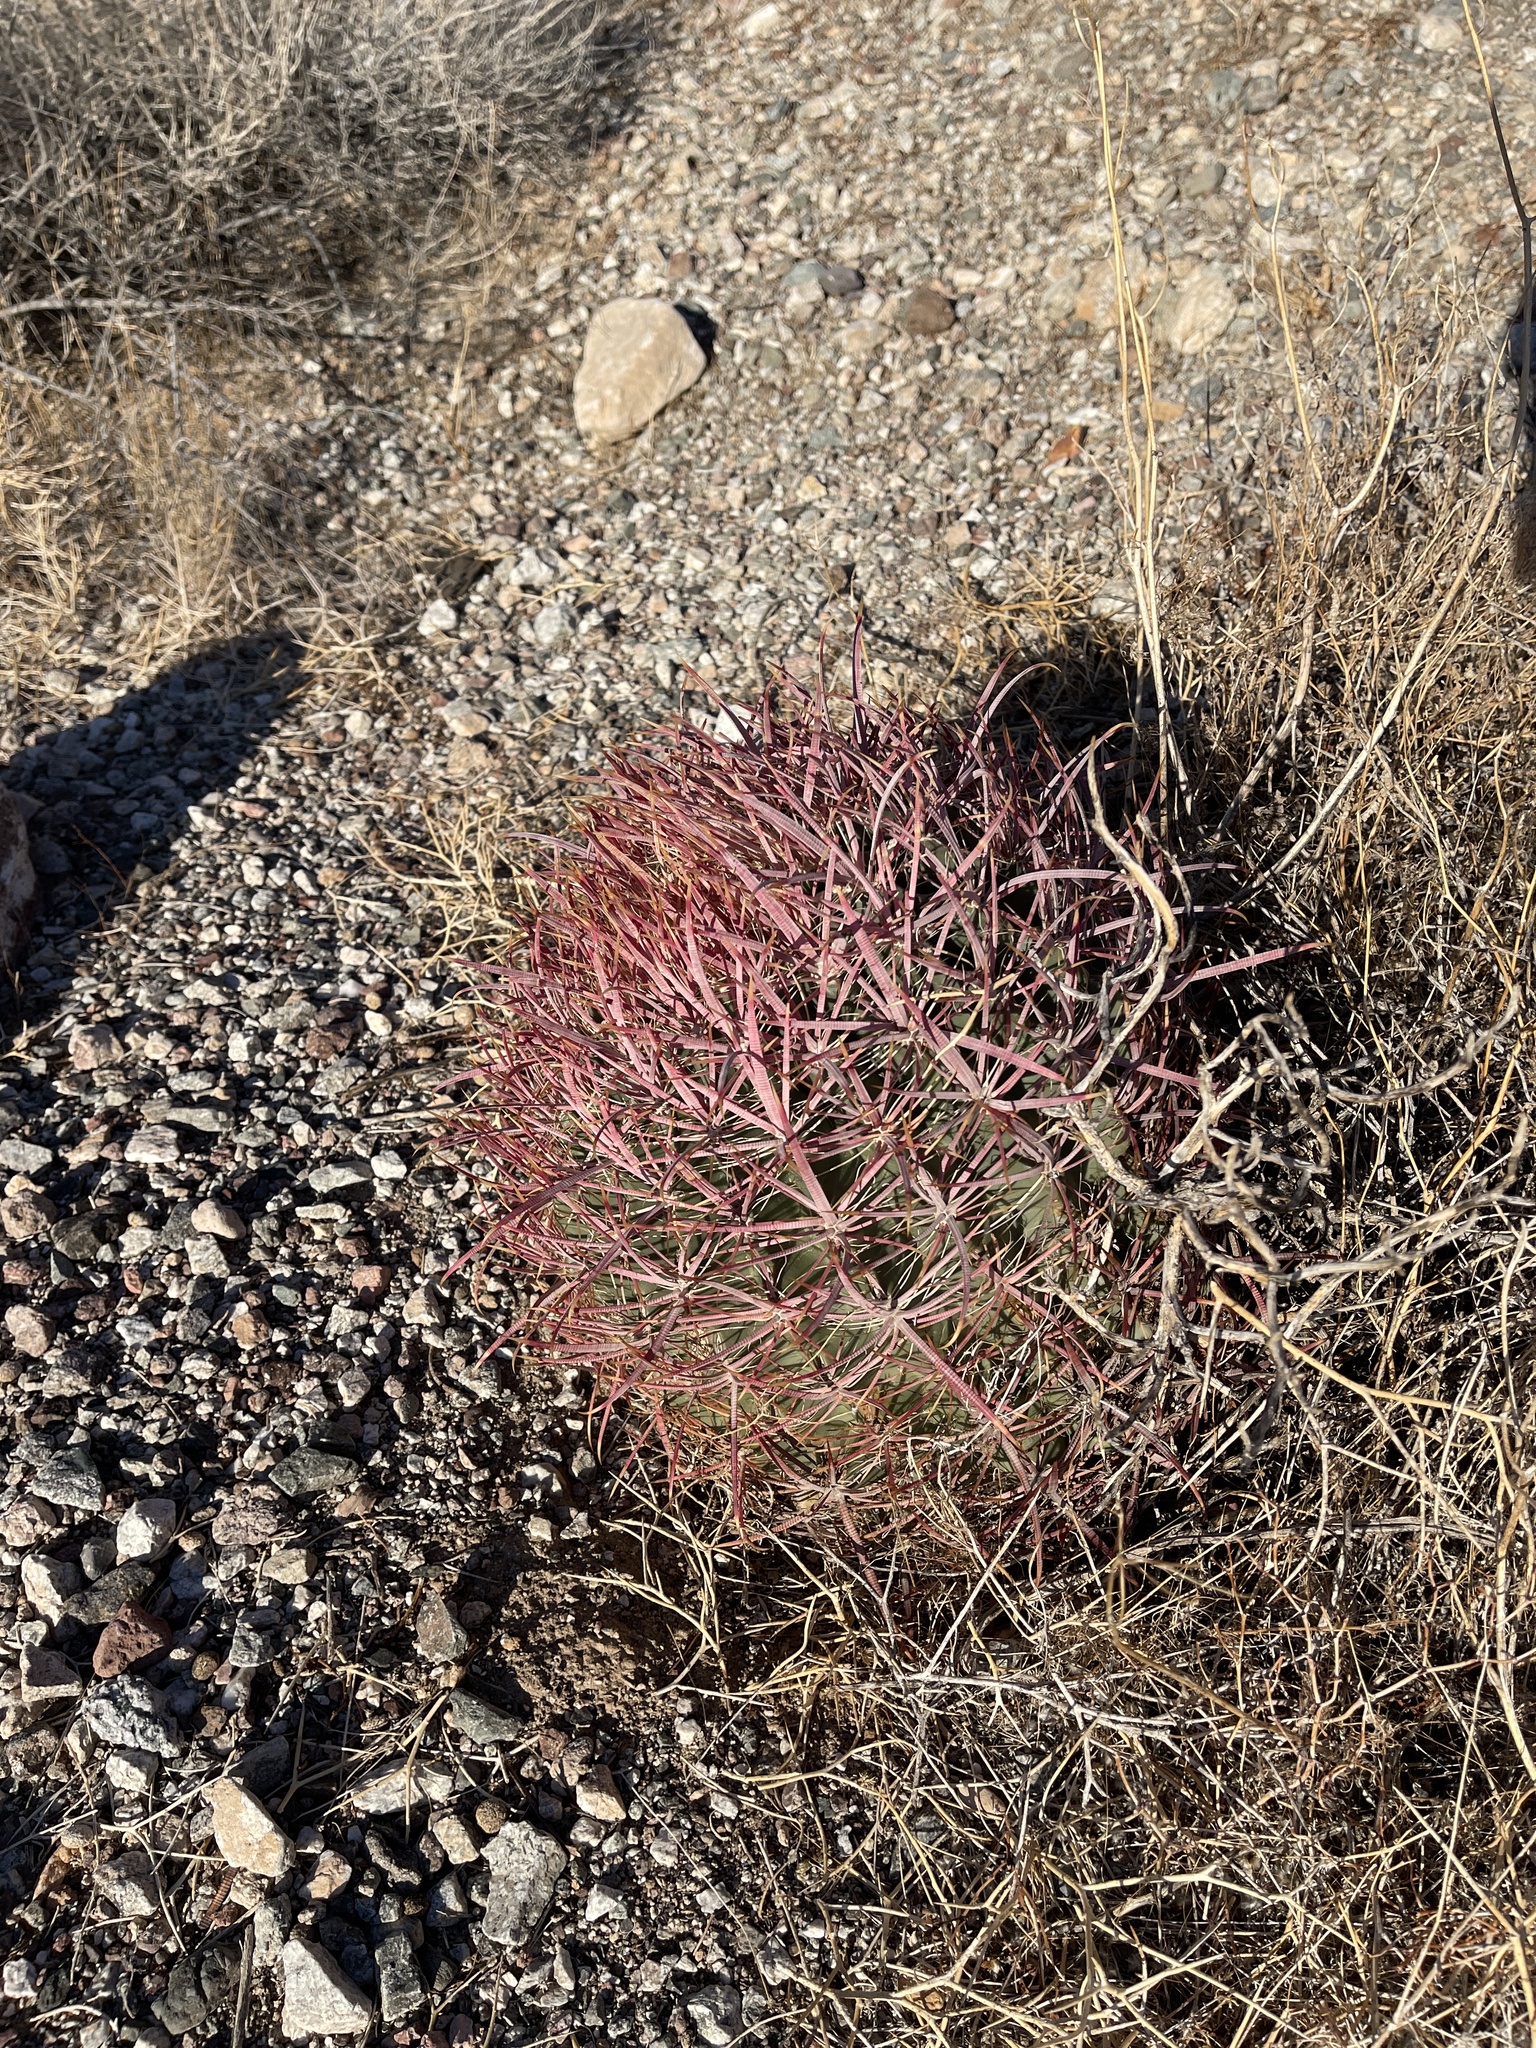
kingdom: Plantae
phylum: Tracheophyta
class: Magnoliopsida
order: Caryophyllales
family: Cactaceae
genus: Ferocactus
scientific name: Ferocactus cylindraceus
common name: California barrel cactus
